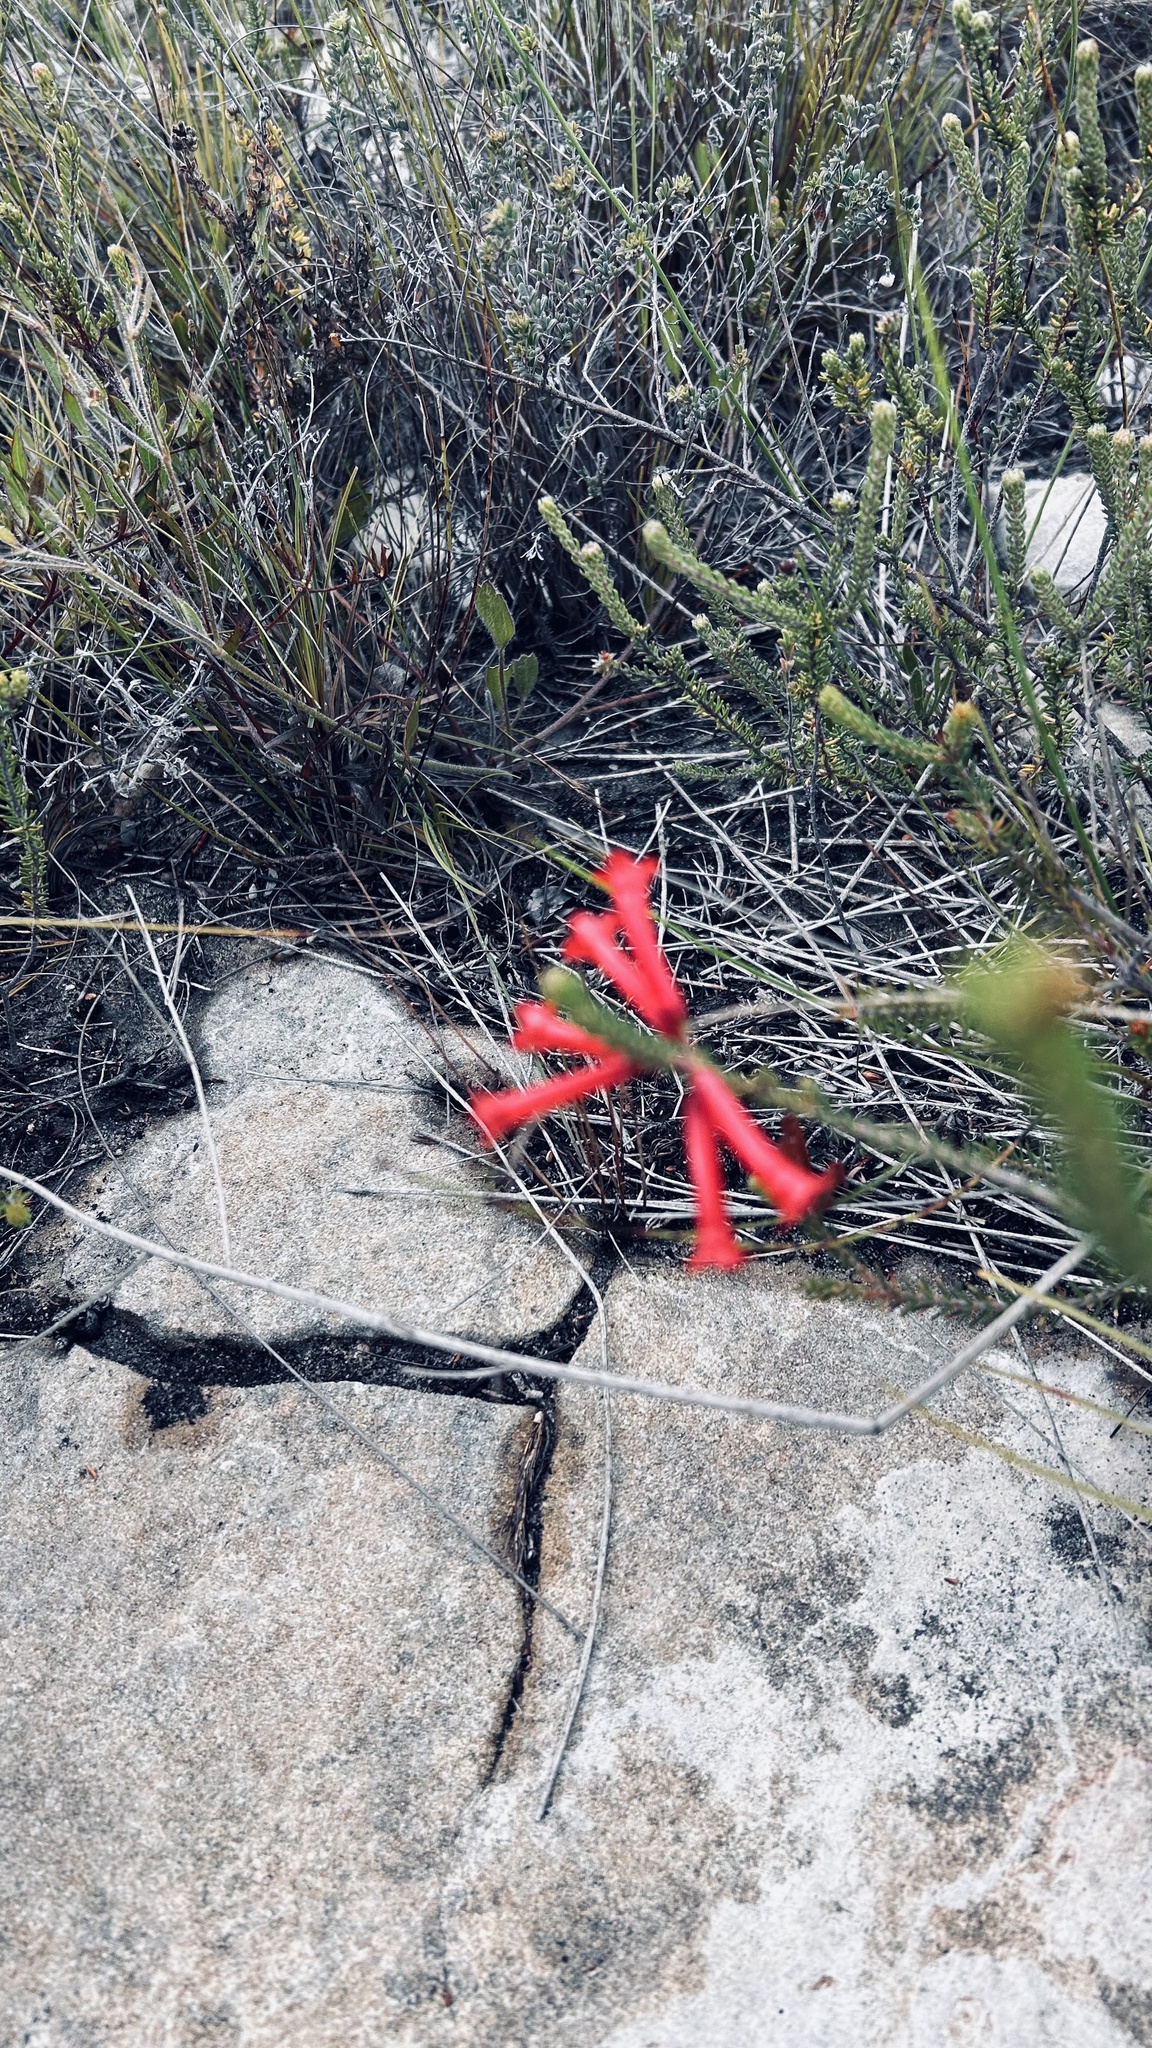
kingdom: Plantae
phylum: Tracheophyta
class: Magnoliopsida
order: Ericales
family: Ericaceae
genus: Erica
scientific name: Erica regia
